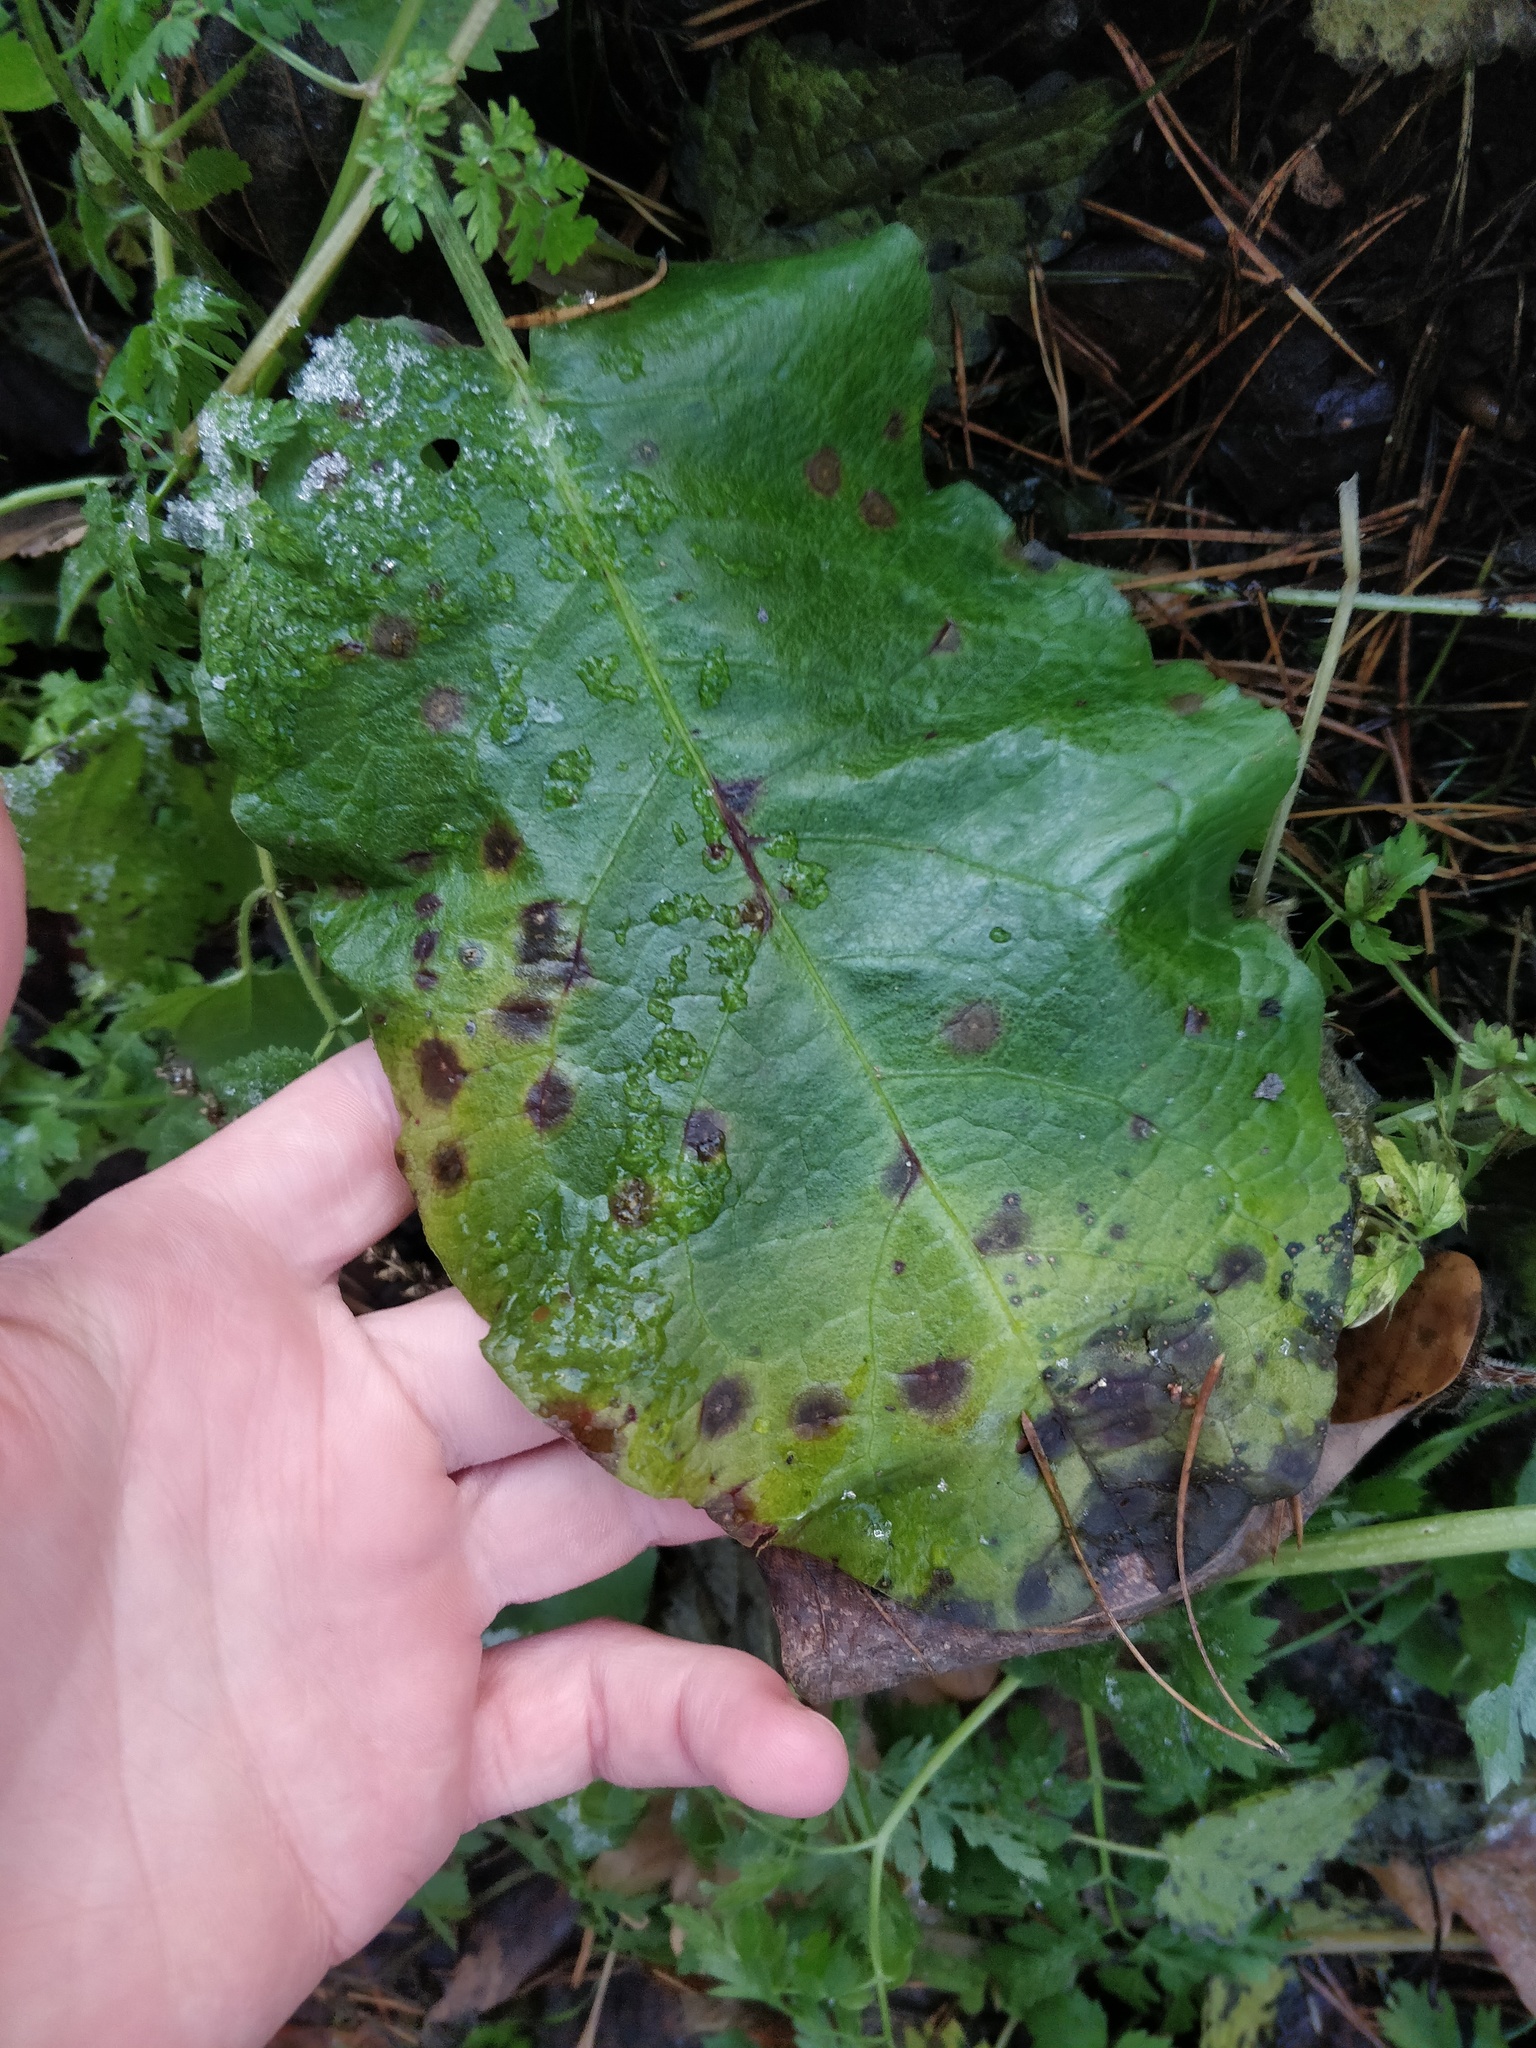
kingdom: Plantae
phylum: Tracheophyta
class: Magnoliopsida
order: Caryophyllales
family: Polygonaceae
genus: Rumex
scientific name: Rumex obtusifolius
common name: Bitter dock
